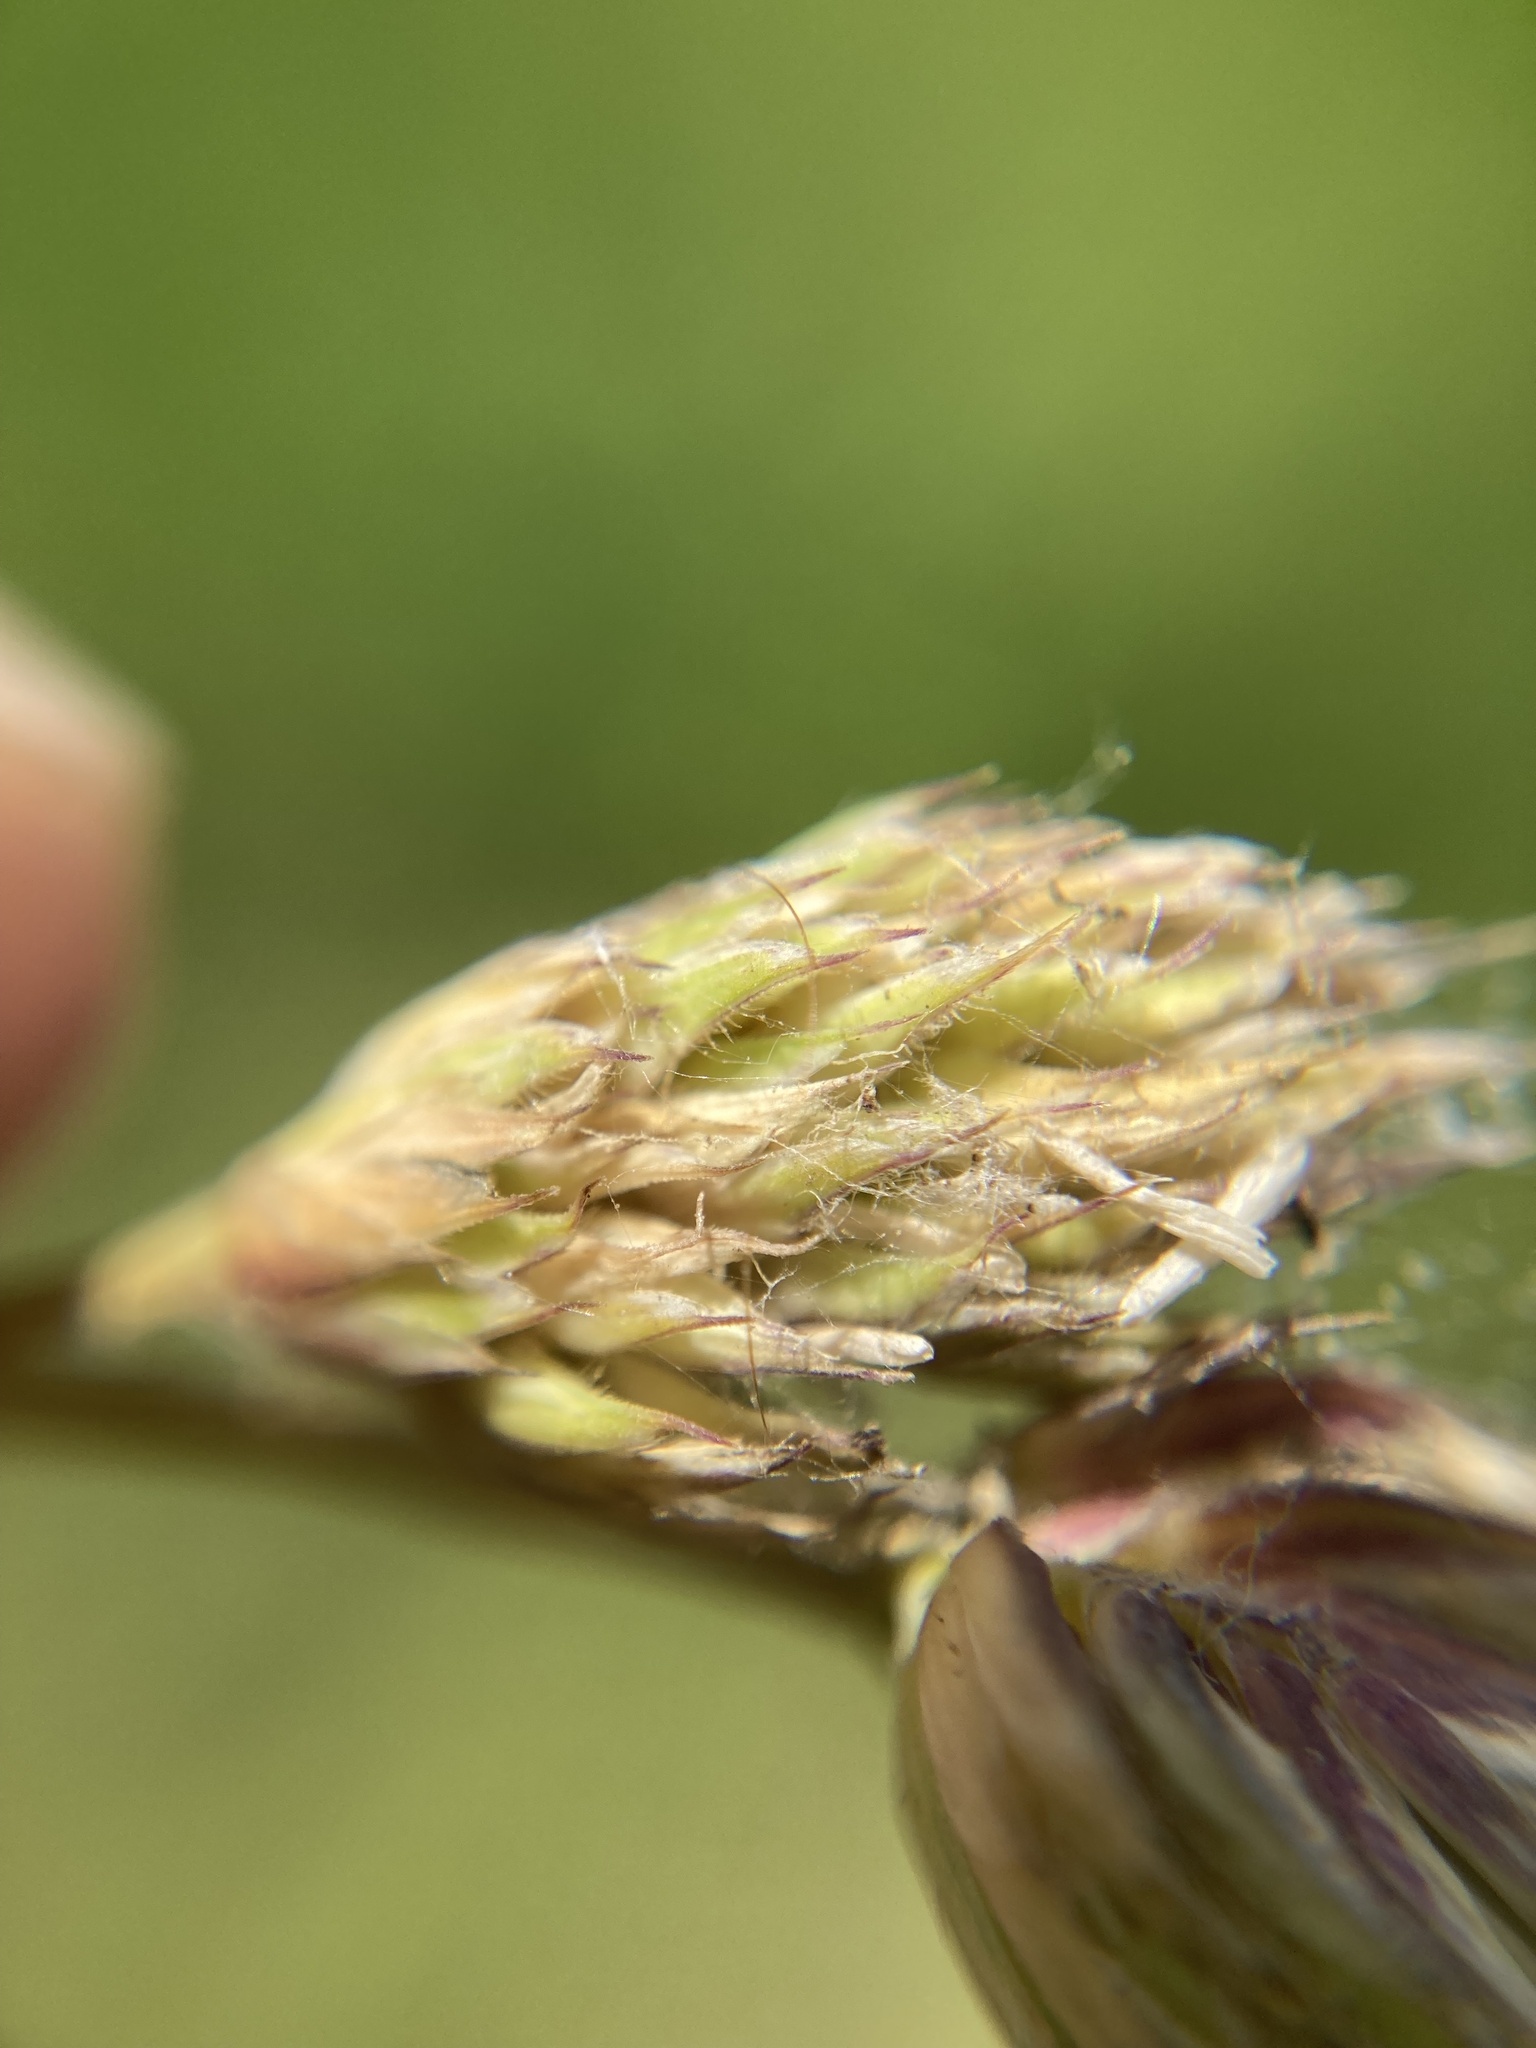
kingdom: Plantae
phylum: Tracheophyta
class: Liliopsida
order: Poales
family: Poaceae
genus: Dactylis
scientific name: Dactylis glomerata
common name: Orchardgrass
